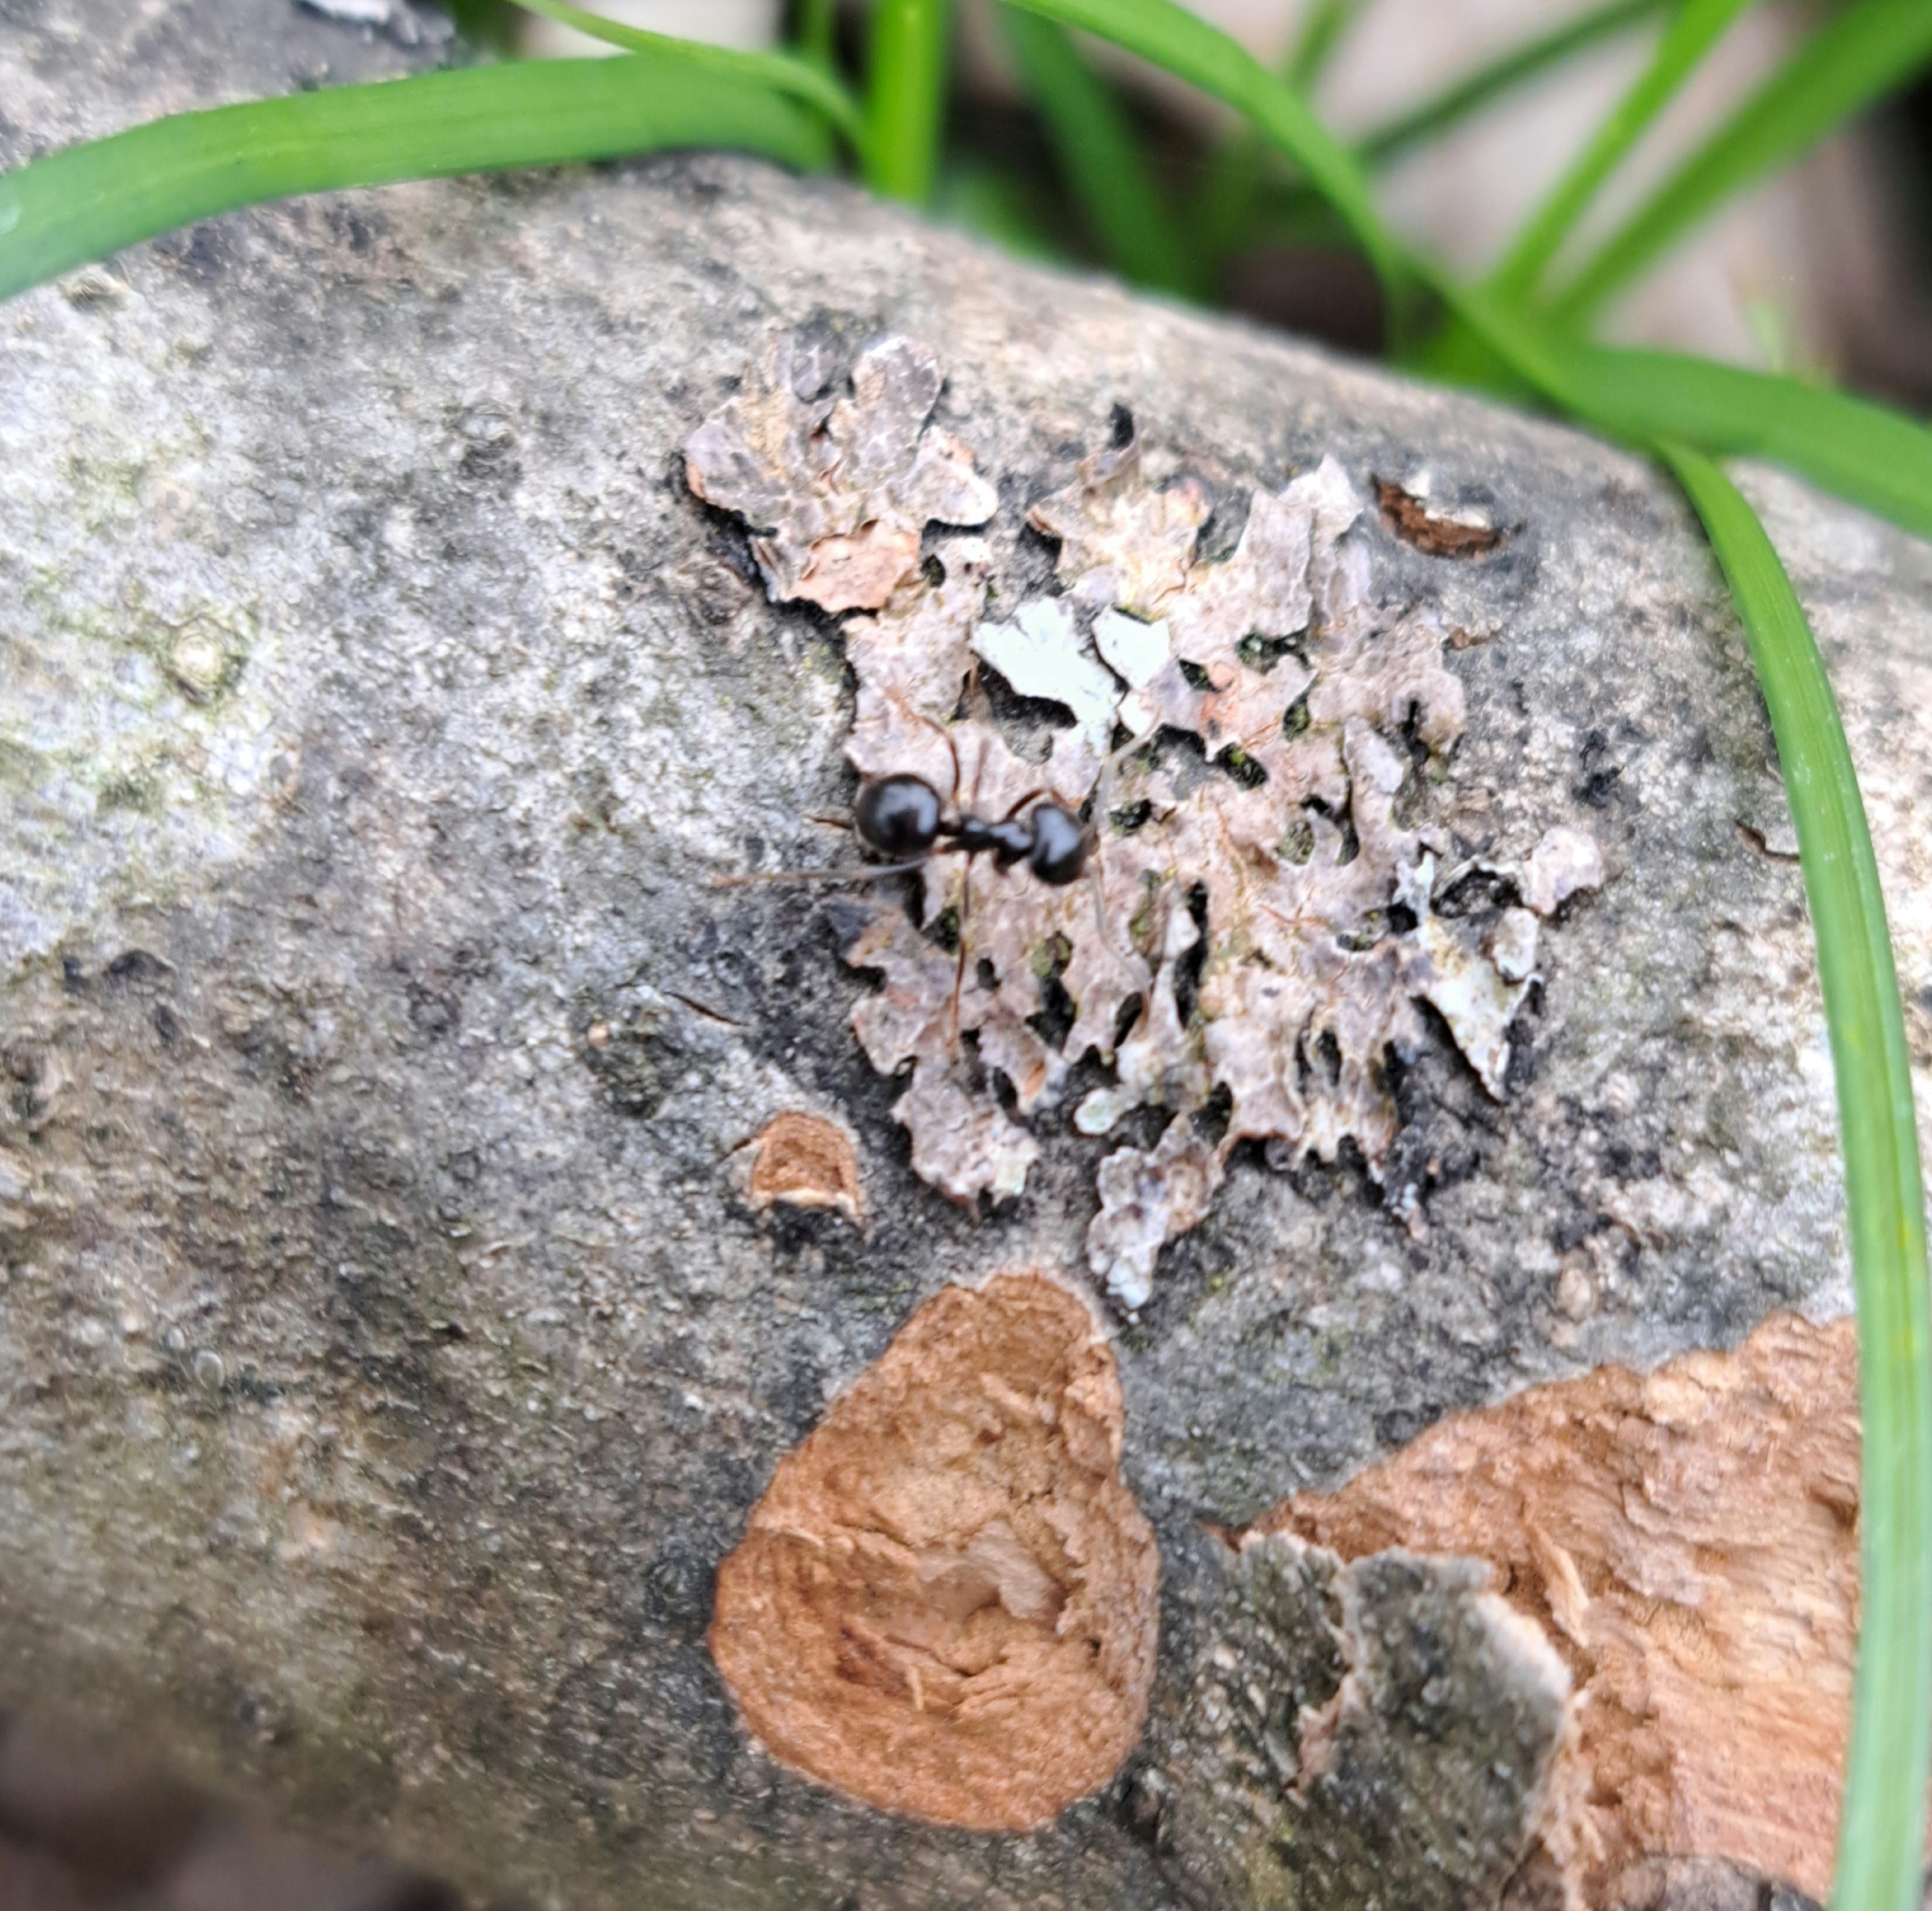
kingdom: Animalia
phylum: Arthropoda
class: Insecta
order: Hymenoptera
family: Formicidae
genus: Lasius
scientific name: Lasius fuliginosus
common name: Jet ant
